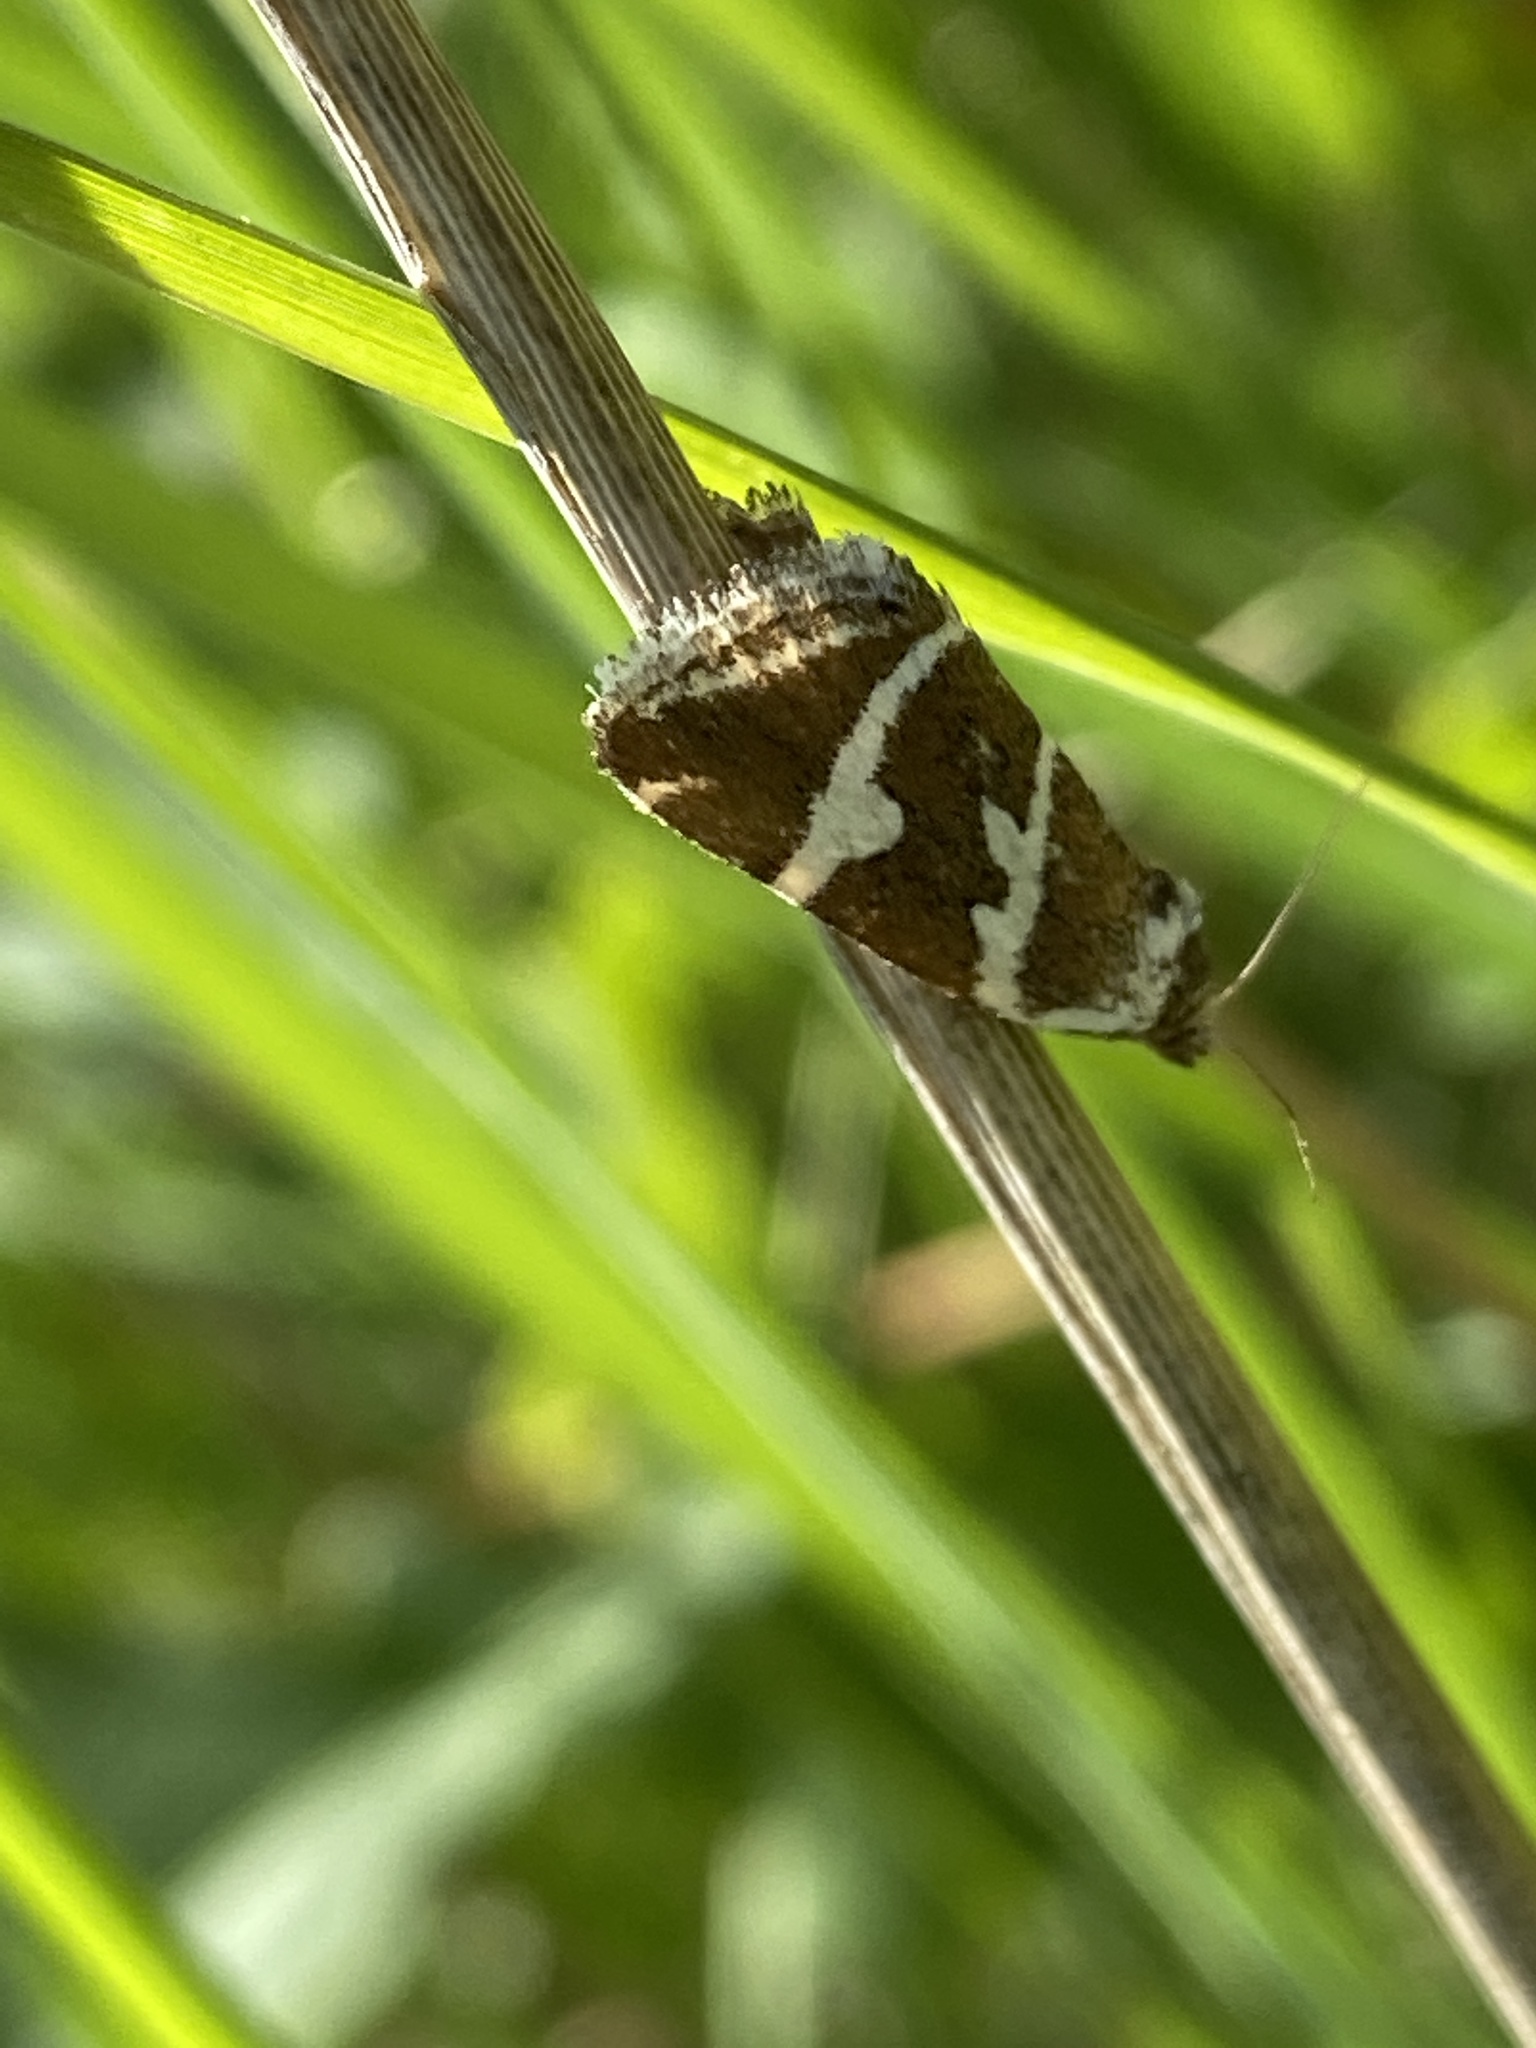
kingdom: Animalia
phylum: Arthropoda
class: Insecta
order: Lepidoptera
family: Noctuidae
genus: Deltote
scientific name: Deltote bankiana
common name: Silver barred
